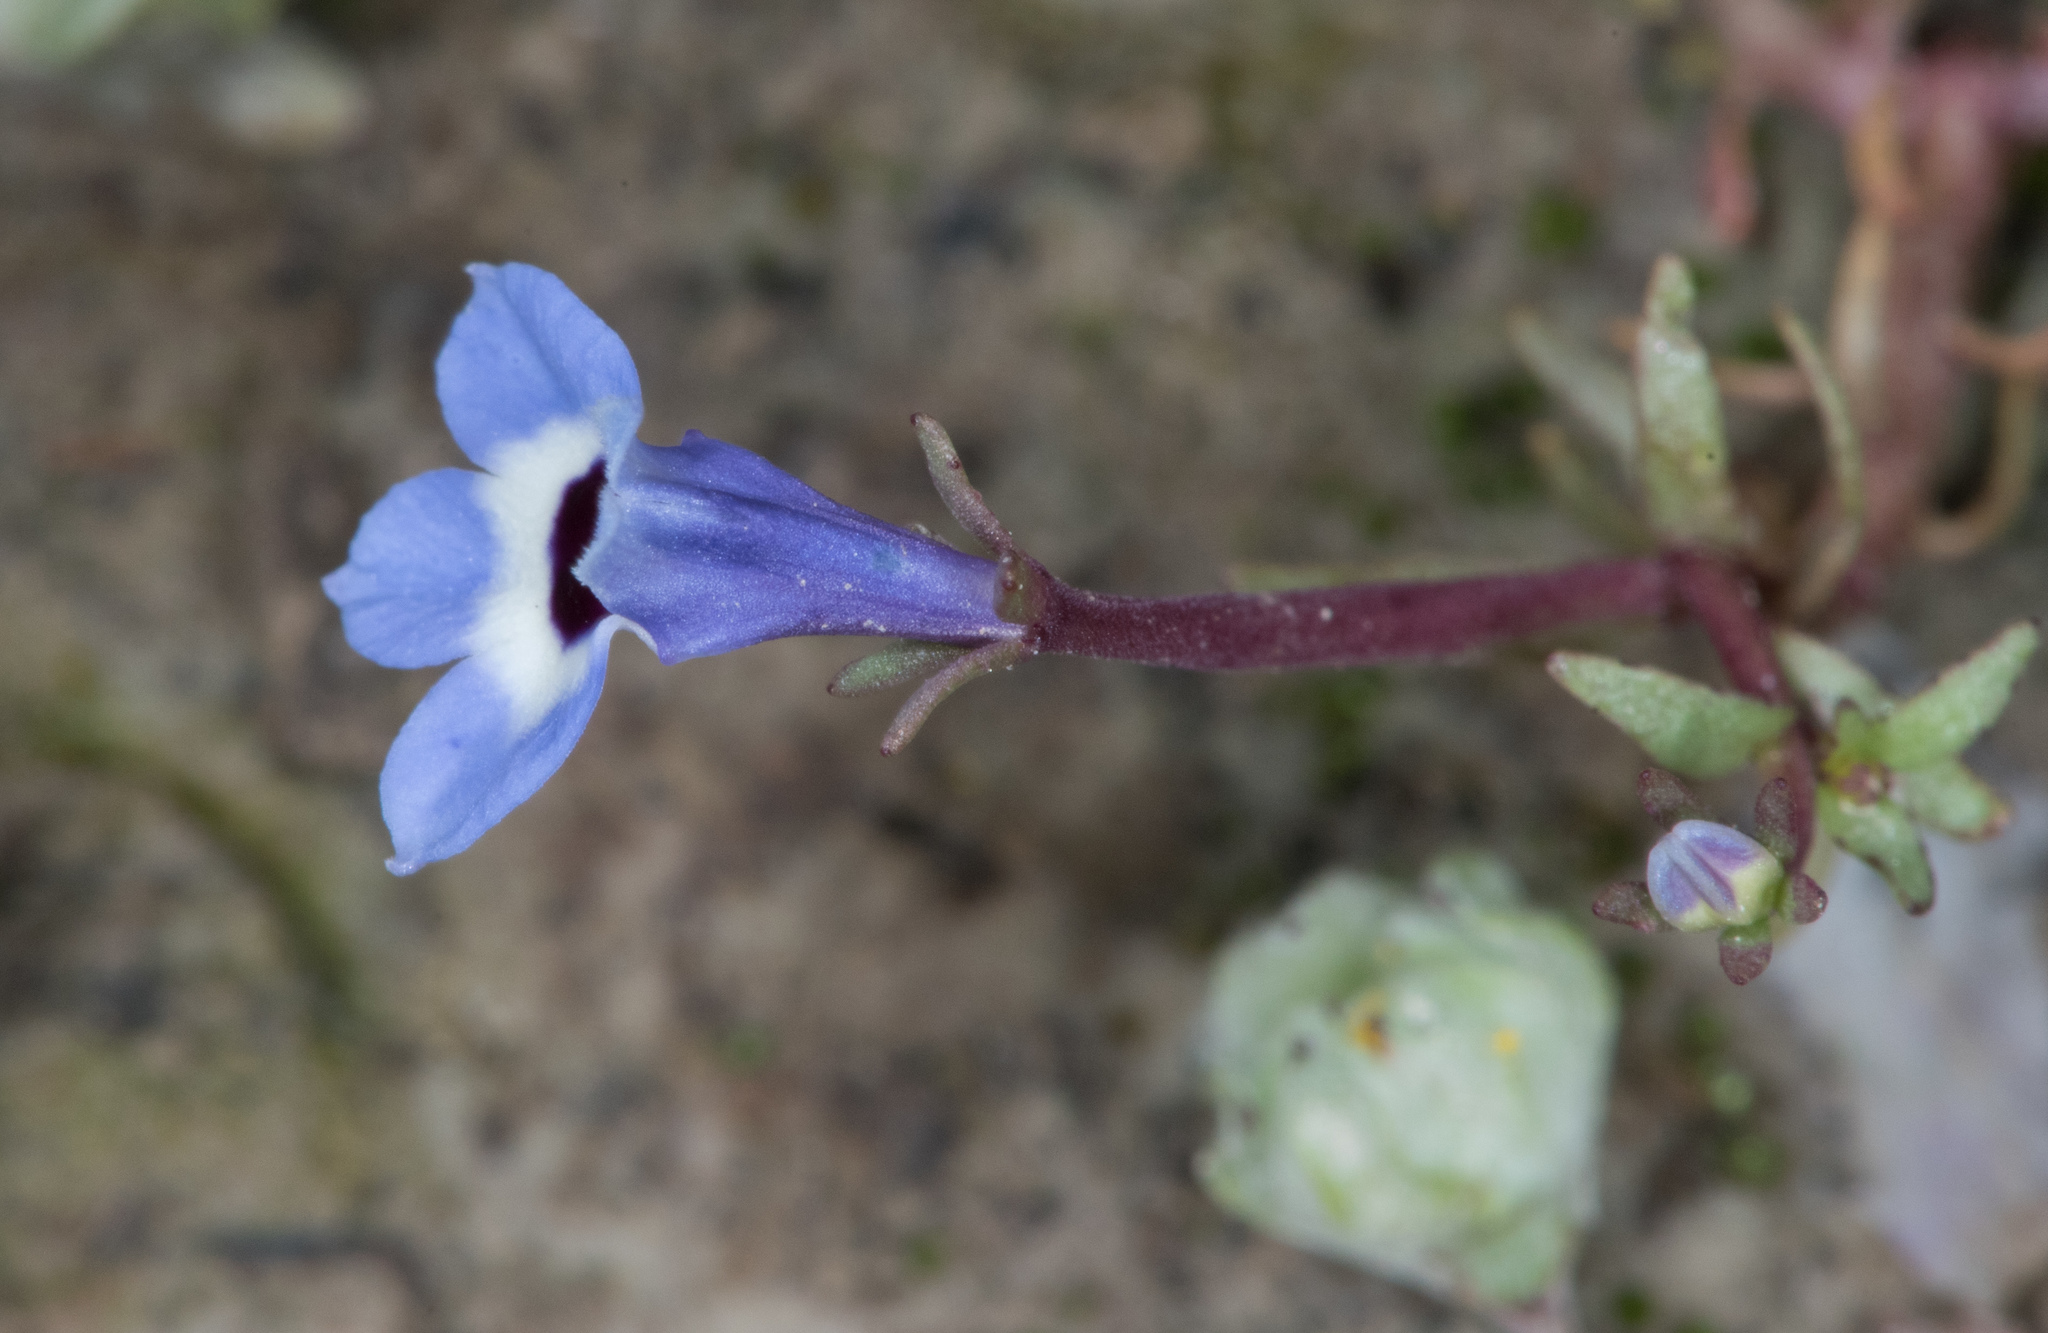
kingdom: Plantae
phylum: Tracheophyta
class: Magnoliopsida
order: Asterales
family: Campanulaceae
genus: Downingia
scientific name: Downingia concolor
